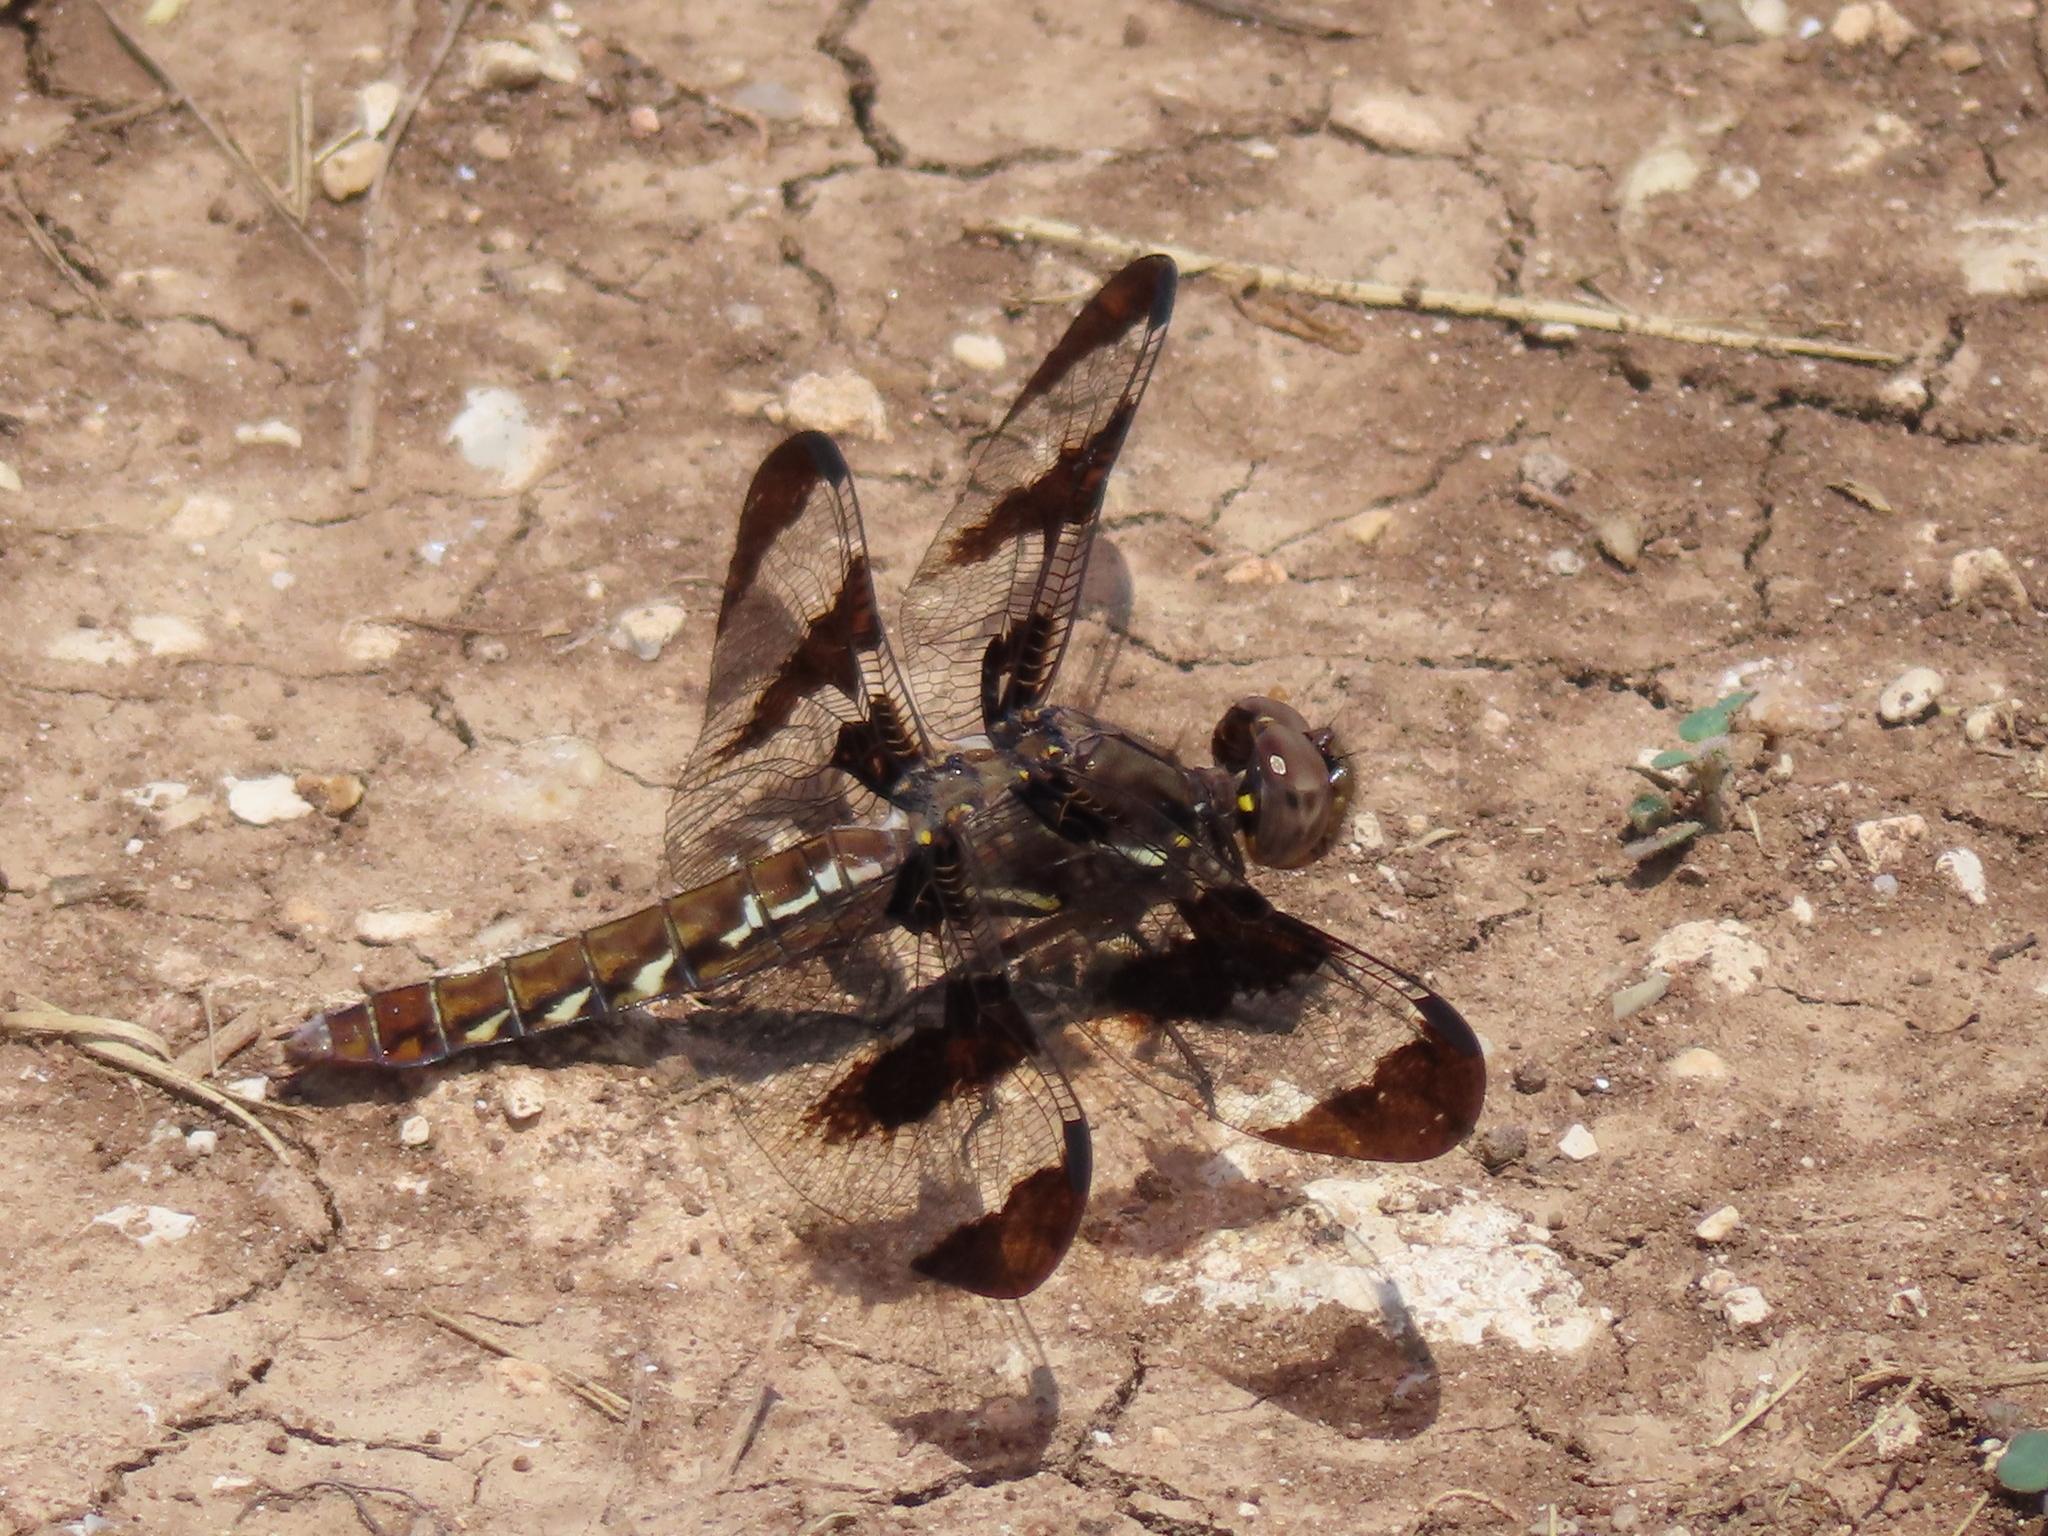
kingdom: Animalia
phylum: Arthropoda
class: Insecta
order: Odonata
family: Libellulidae
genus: Plathemis
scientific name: Plathemis lydia
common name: Common whitetail
